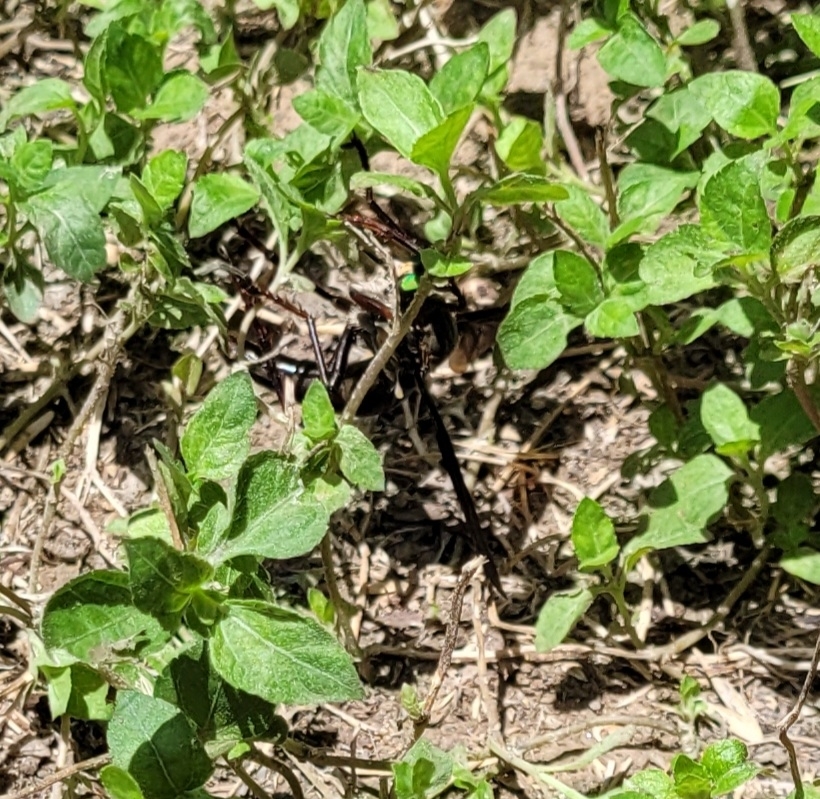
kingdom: Animalia
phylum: Arthropoda
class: Insecta
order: Diptera
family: Asilidae
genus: Microstylum
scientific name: Microstylum morosum
